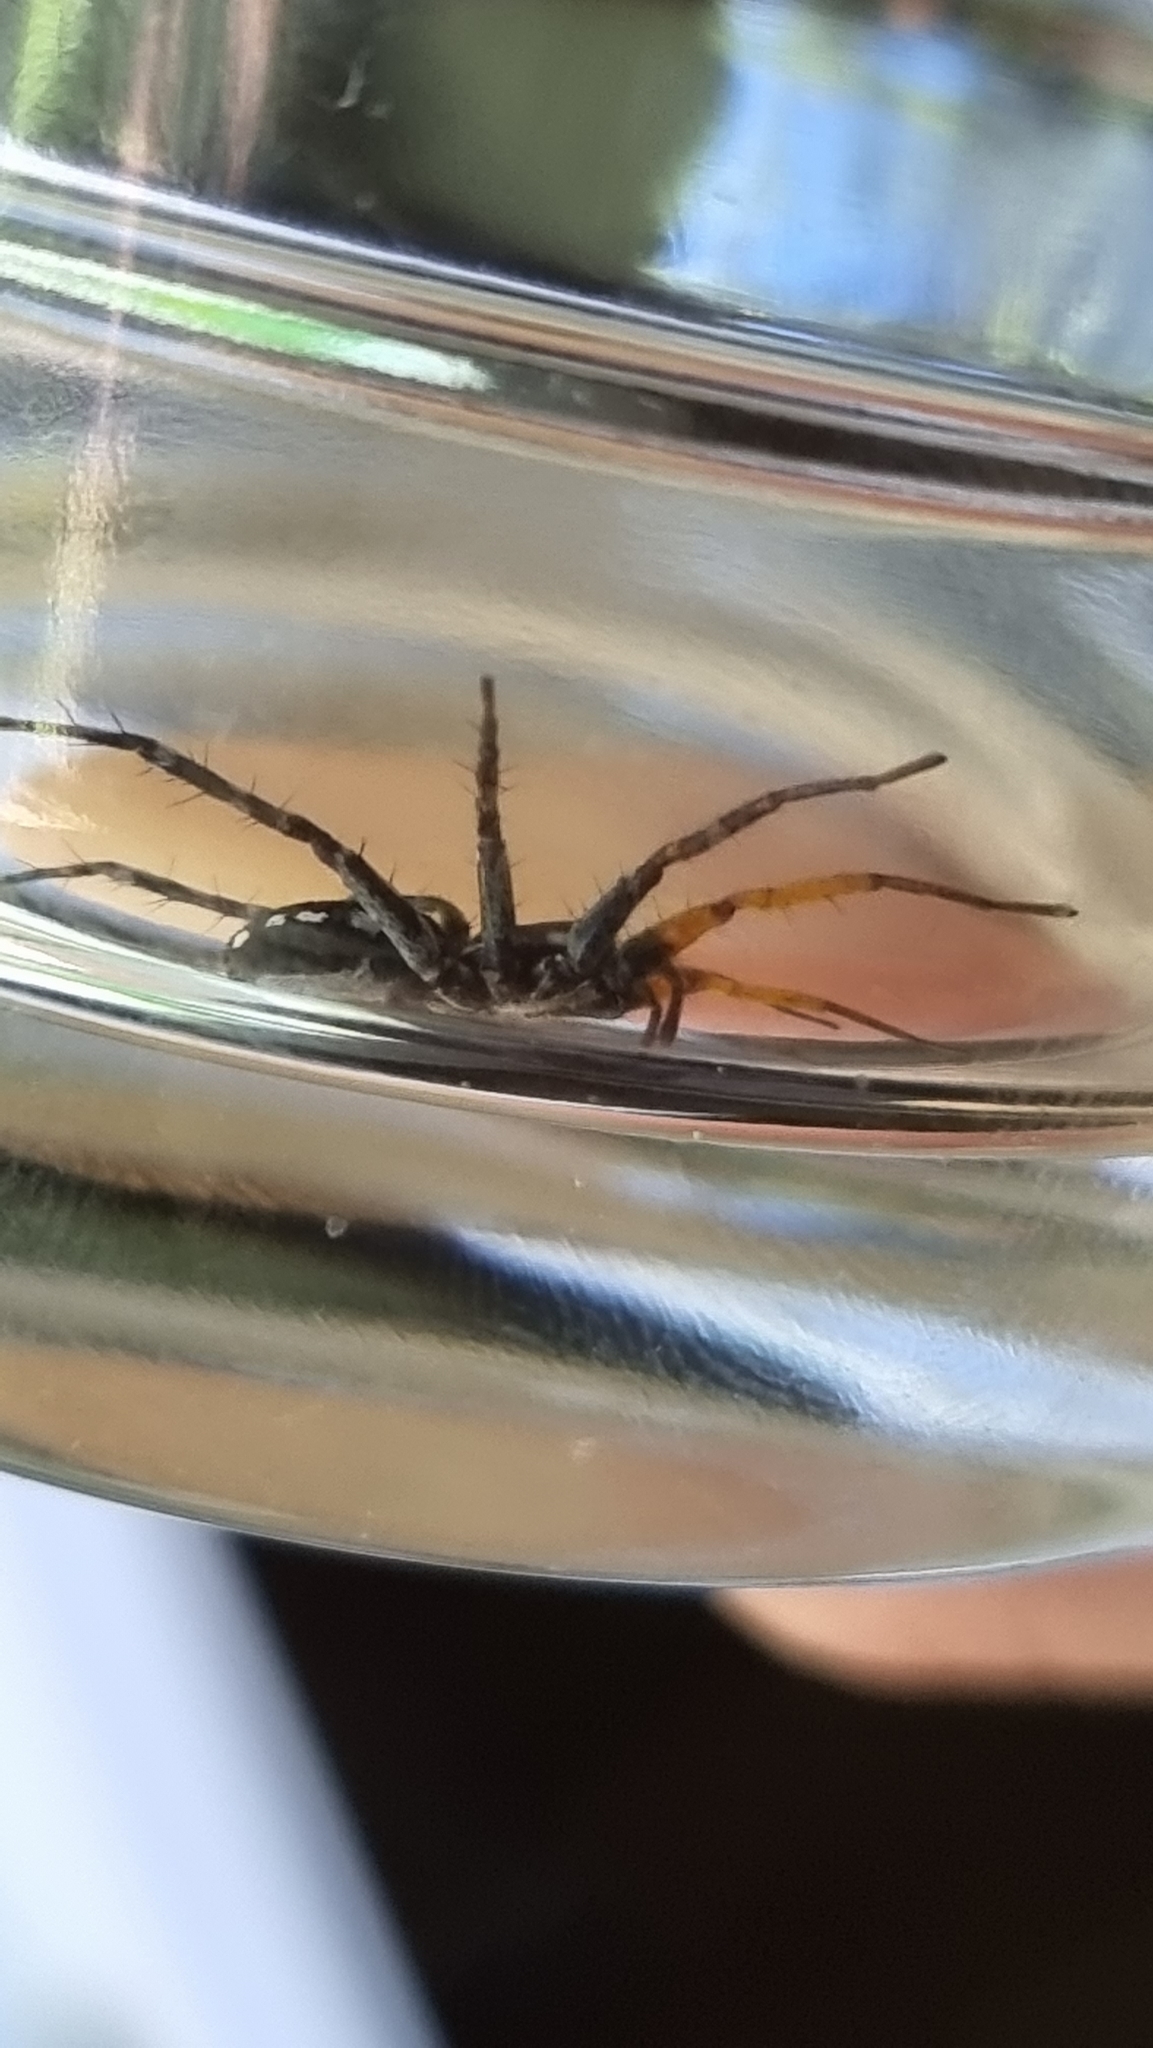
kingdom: Animalia
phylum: Arthropoda
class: Arachnida
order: Araneae
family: Corinnidae
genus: Nyssus
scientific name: Nyssus coloripes
